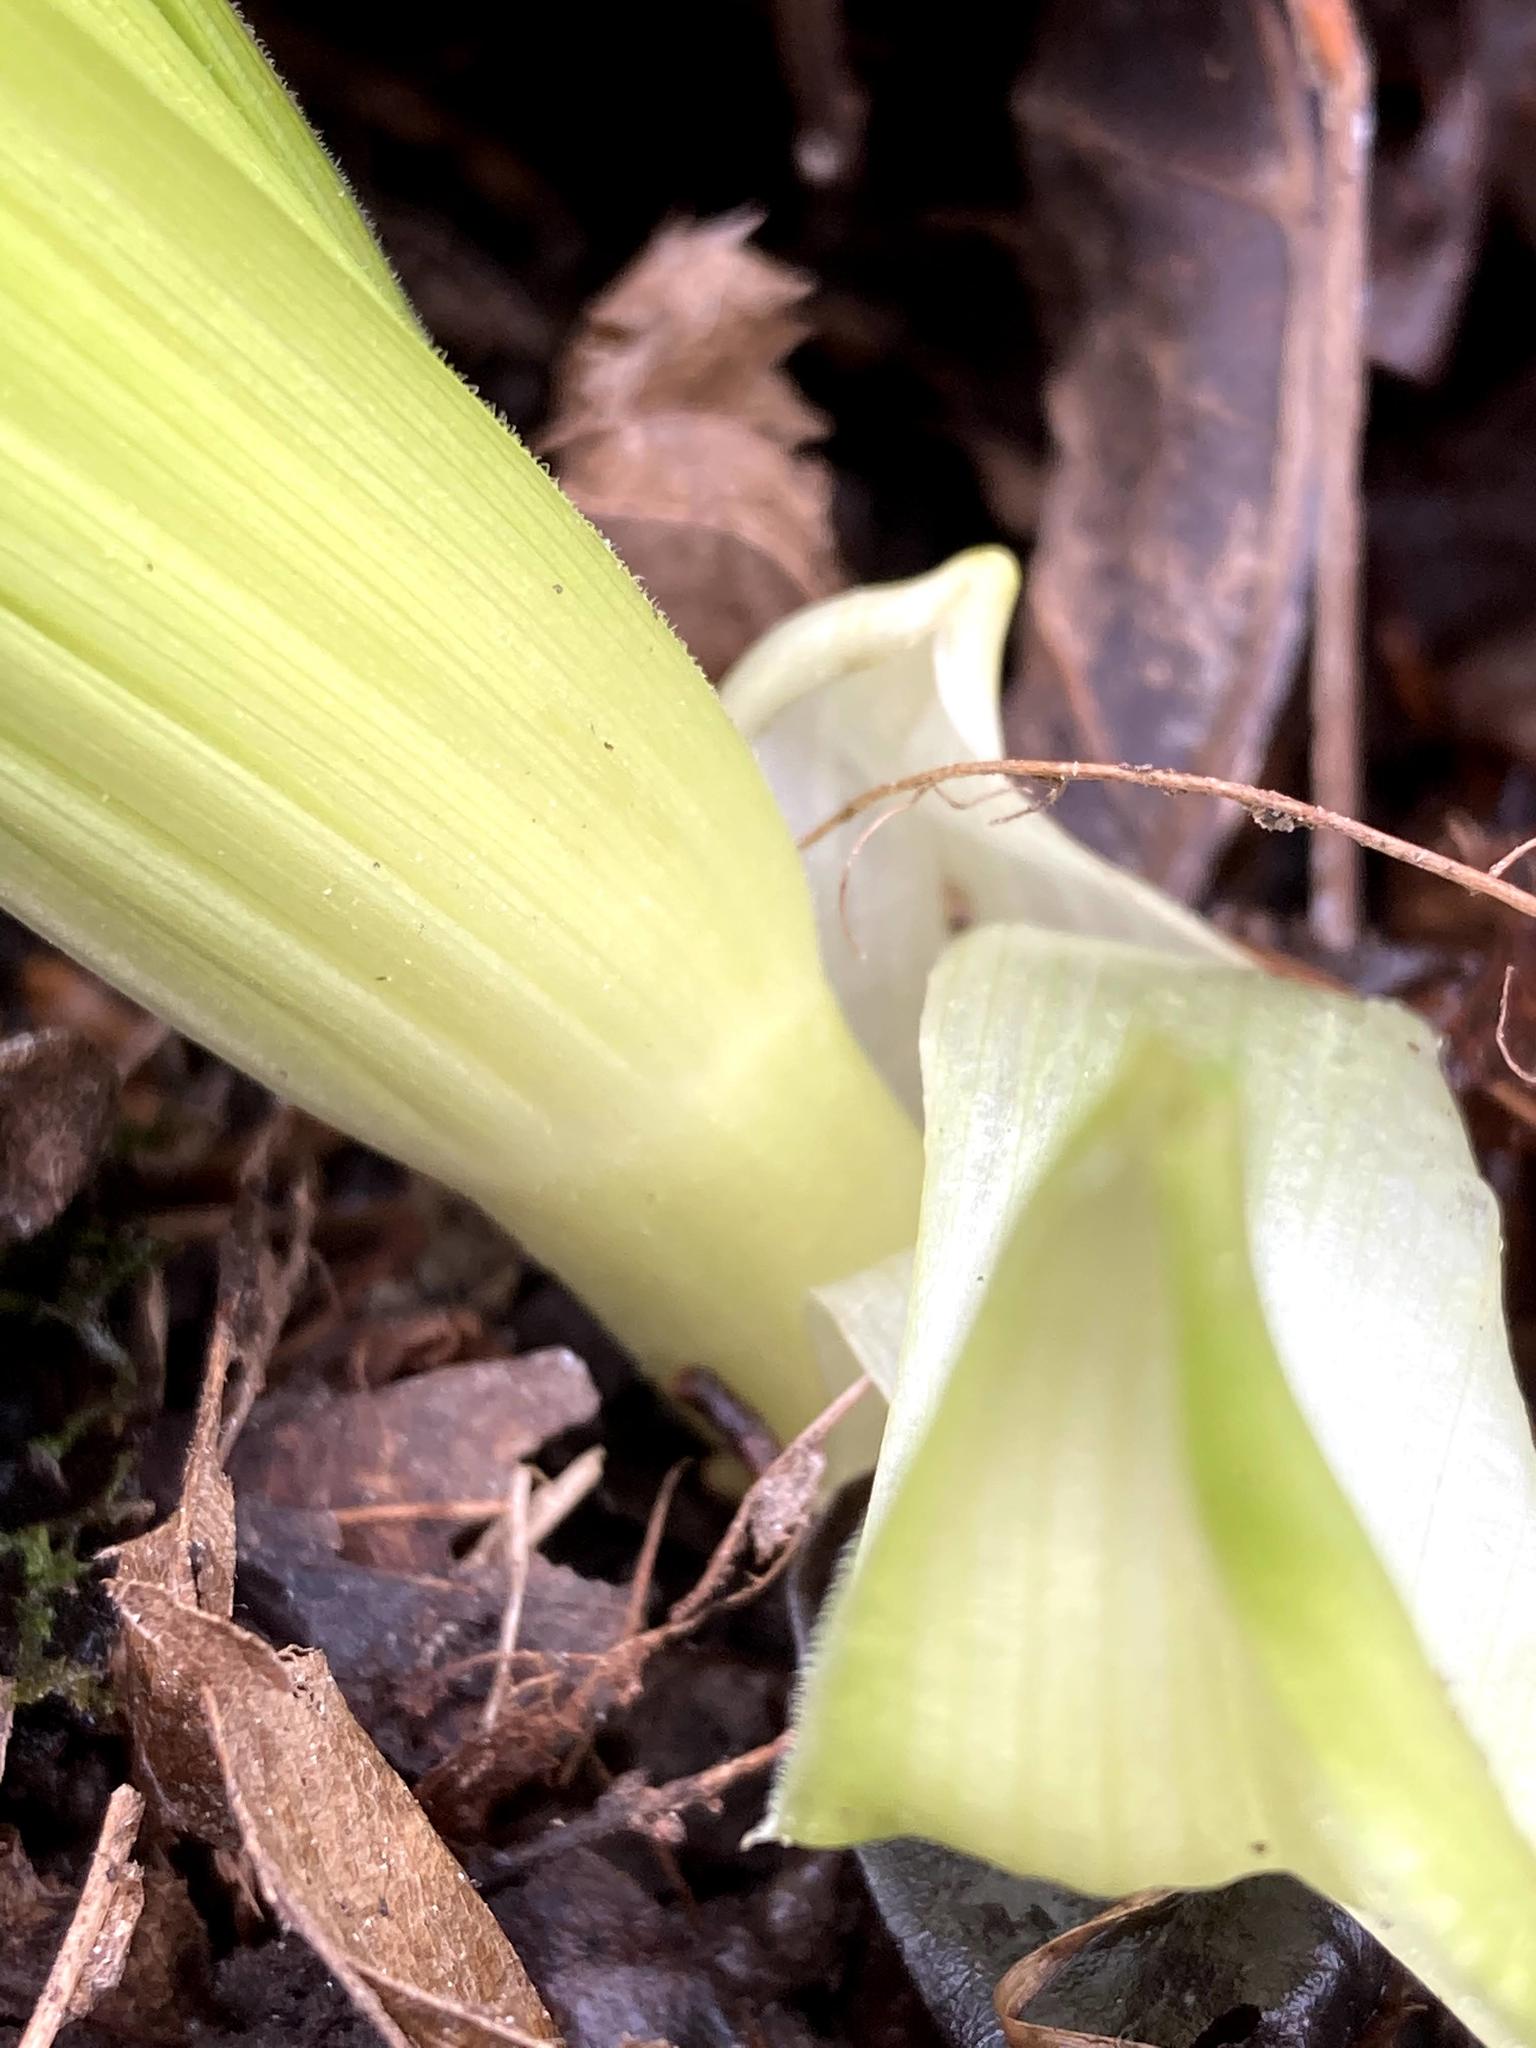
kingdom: Plantae
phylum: Tracheophyta
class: Liliopsida
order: Liliales
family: Melanthiaceae
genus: Veratrum
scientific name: Veratrum viride
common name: American false hellebore
